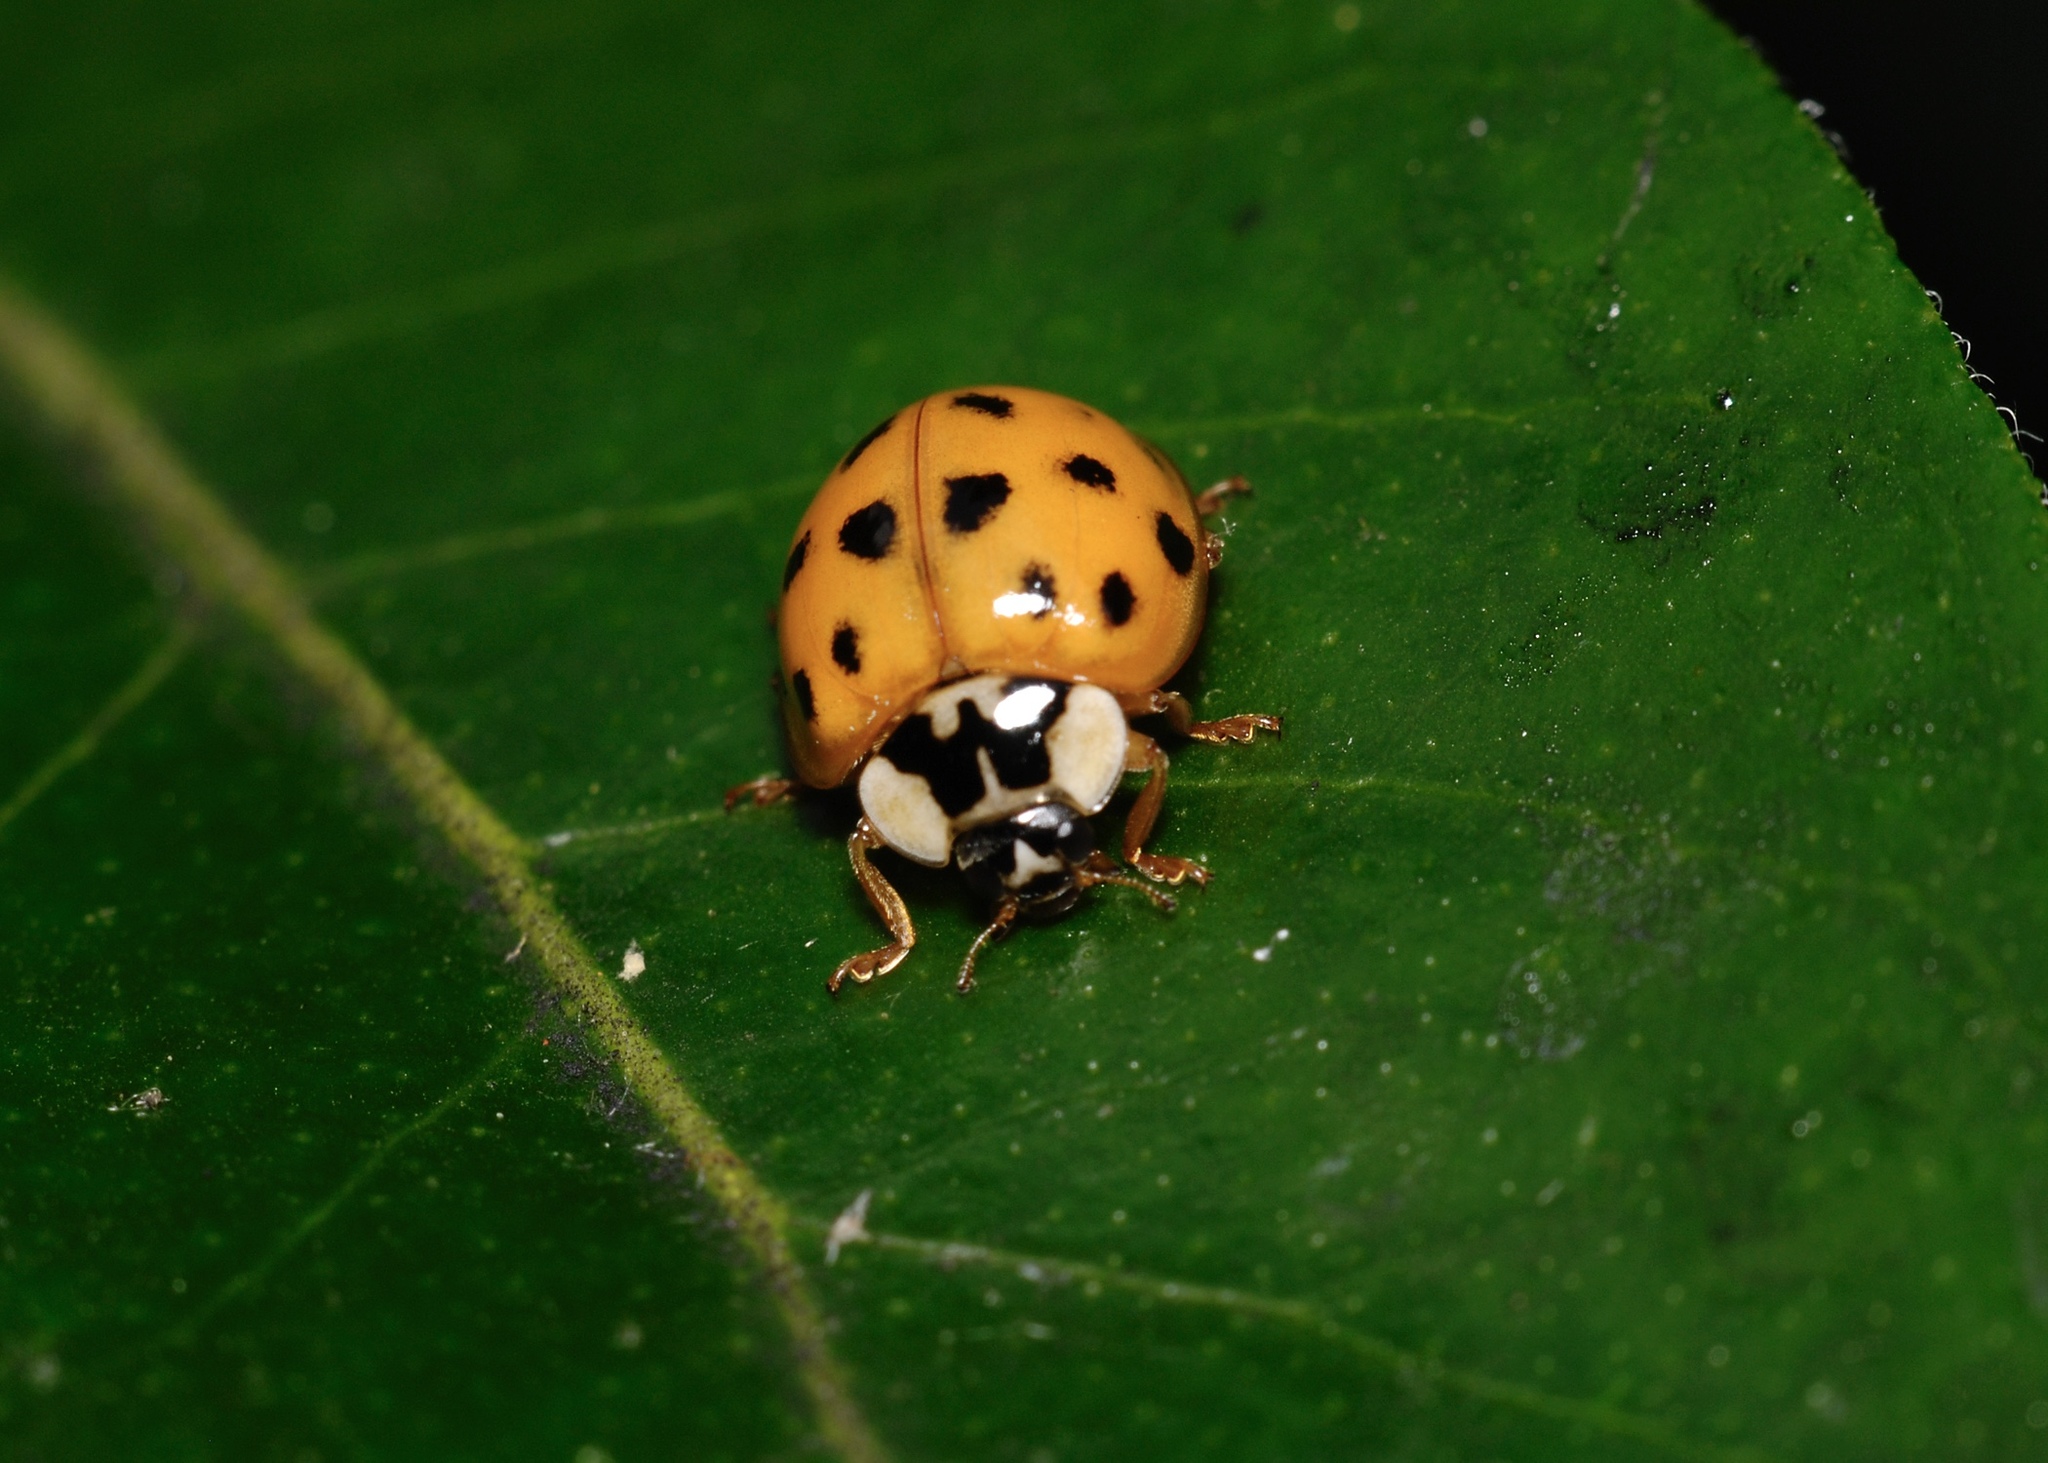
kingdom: Animalia
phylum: Arthropoda
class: Insecta
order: Coleoptera
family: Coccinellidae
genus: Harmonia
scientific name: Harmonia axyridis
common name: Harlequin ladybird
